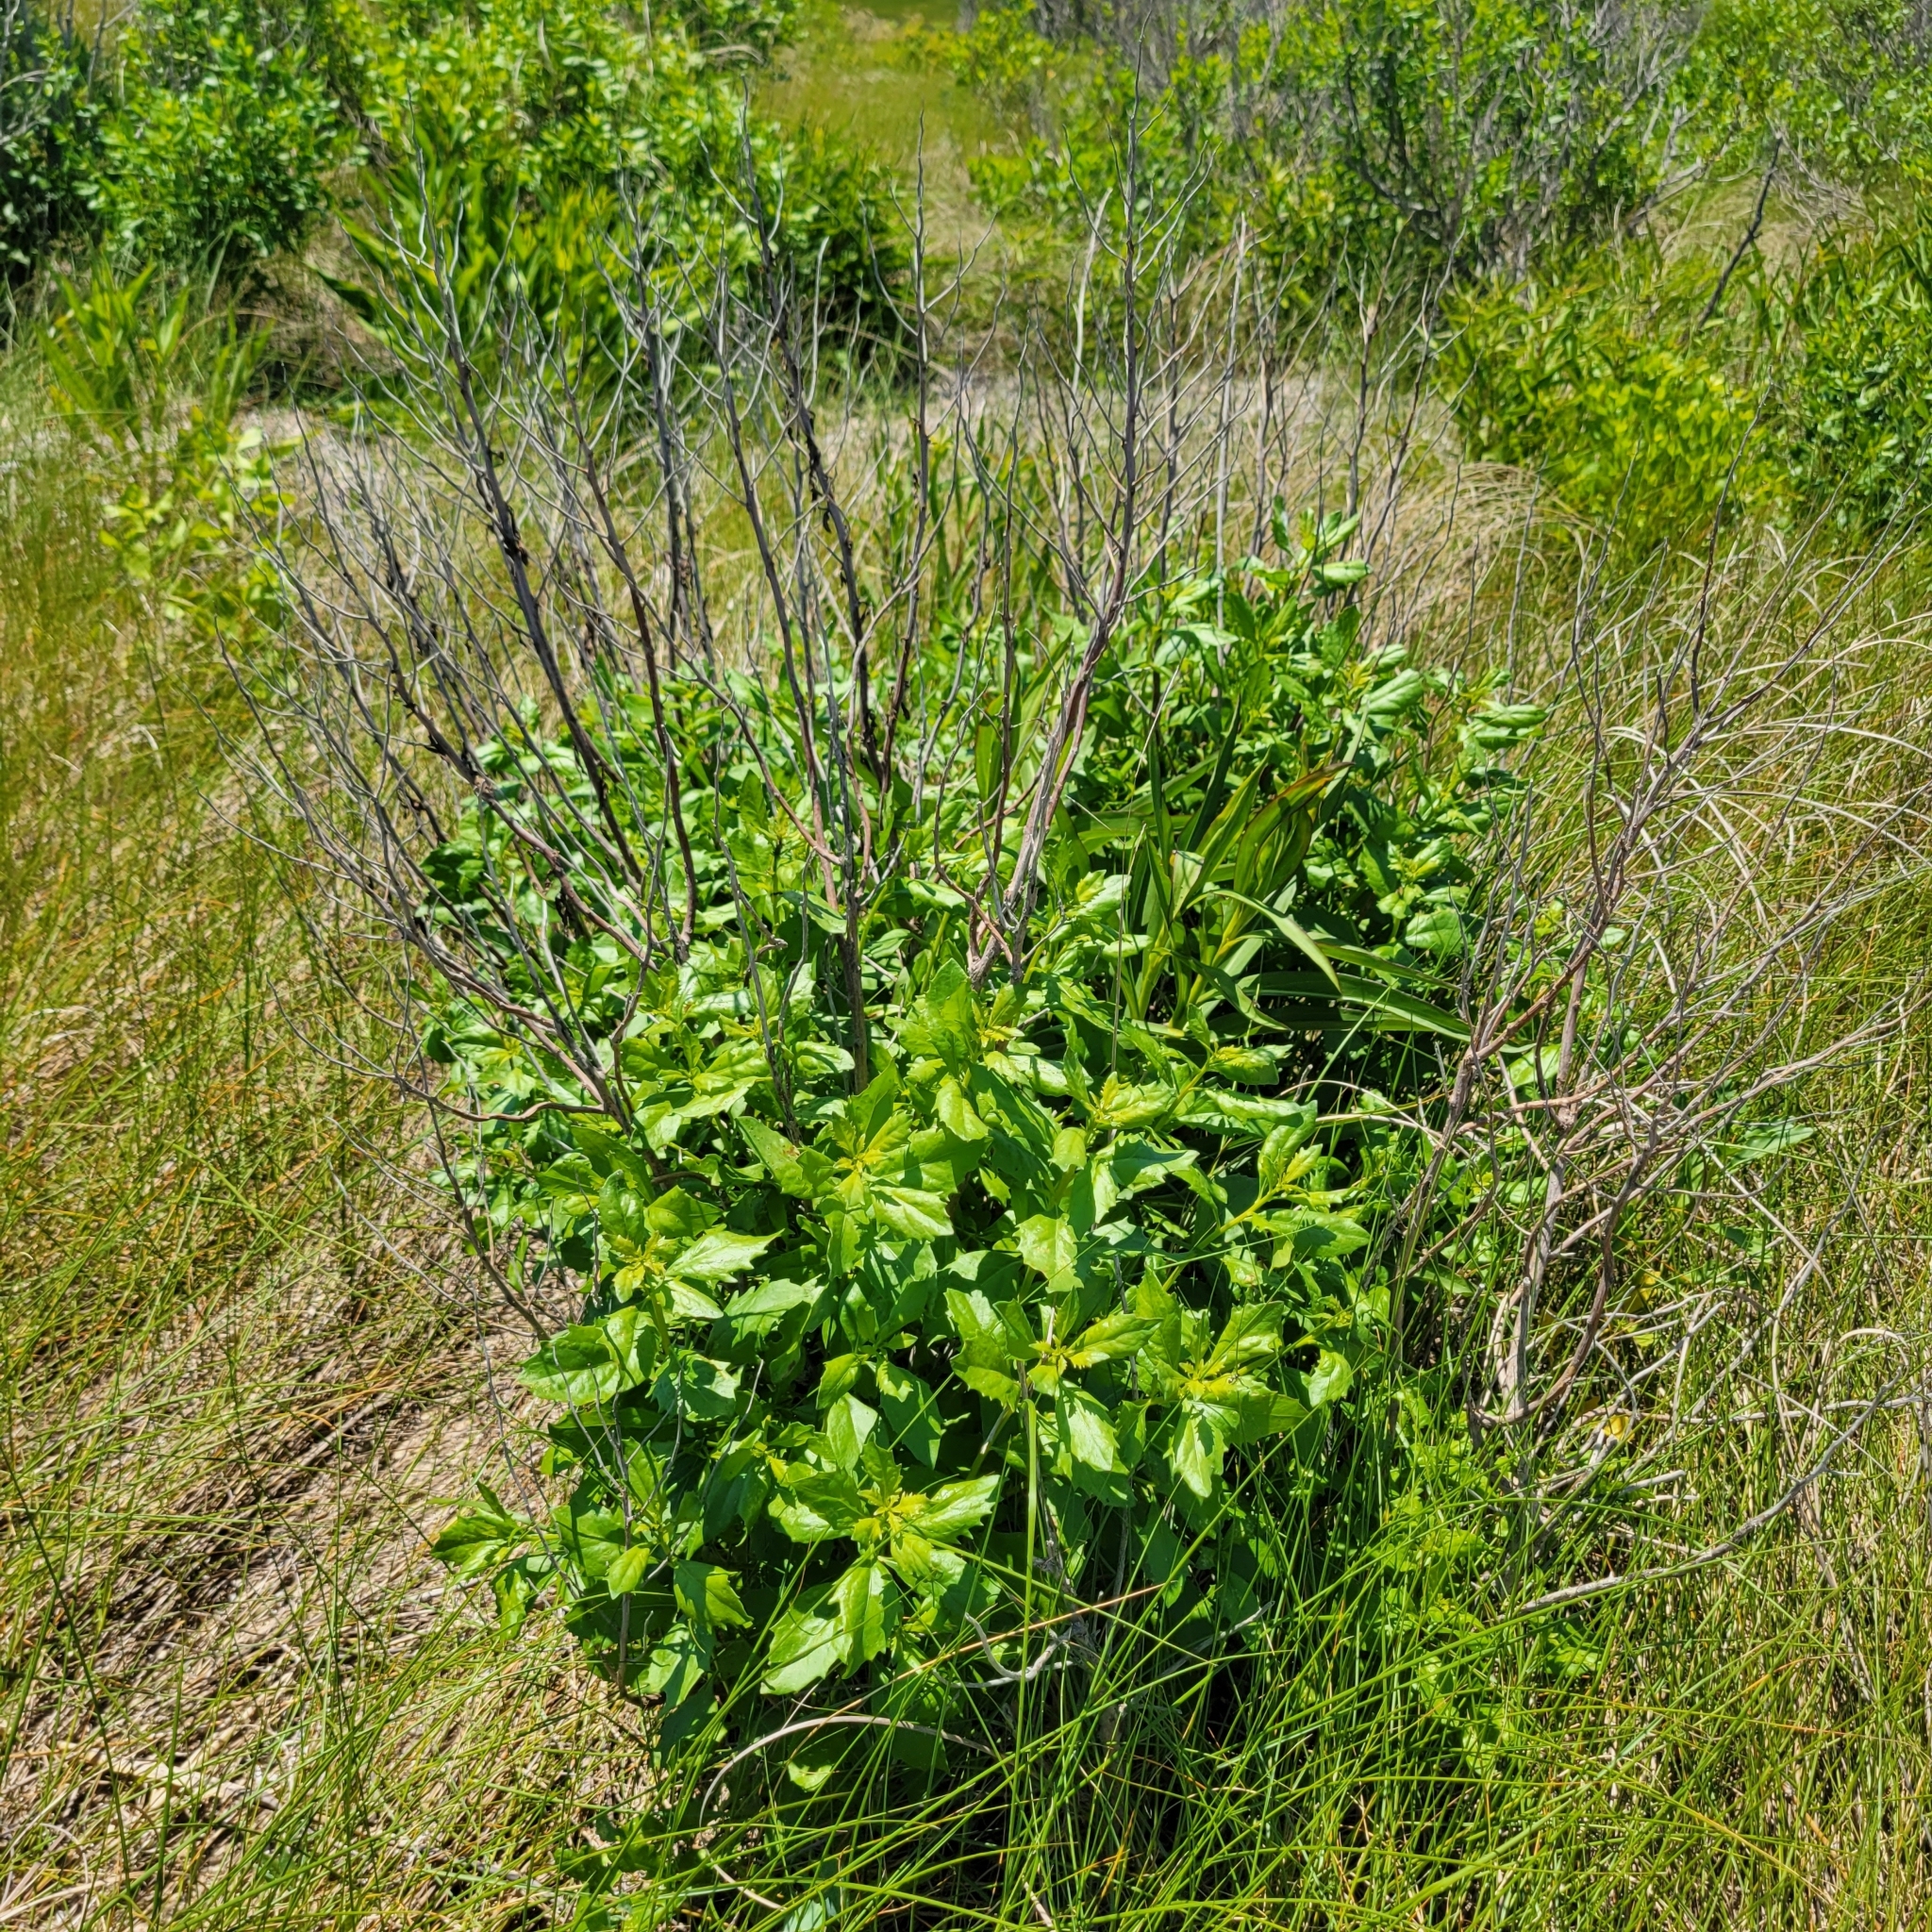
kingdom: Plantae
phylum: Tracheophyta
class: Magnoliopsida
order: Asterales
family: Asteraceae
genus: Baccharis
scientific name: Baccharis halimifolia
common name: Eastern baccharis
